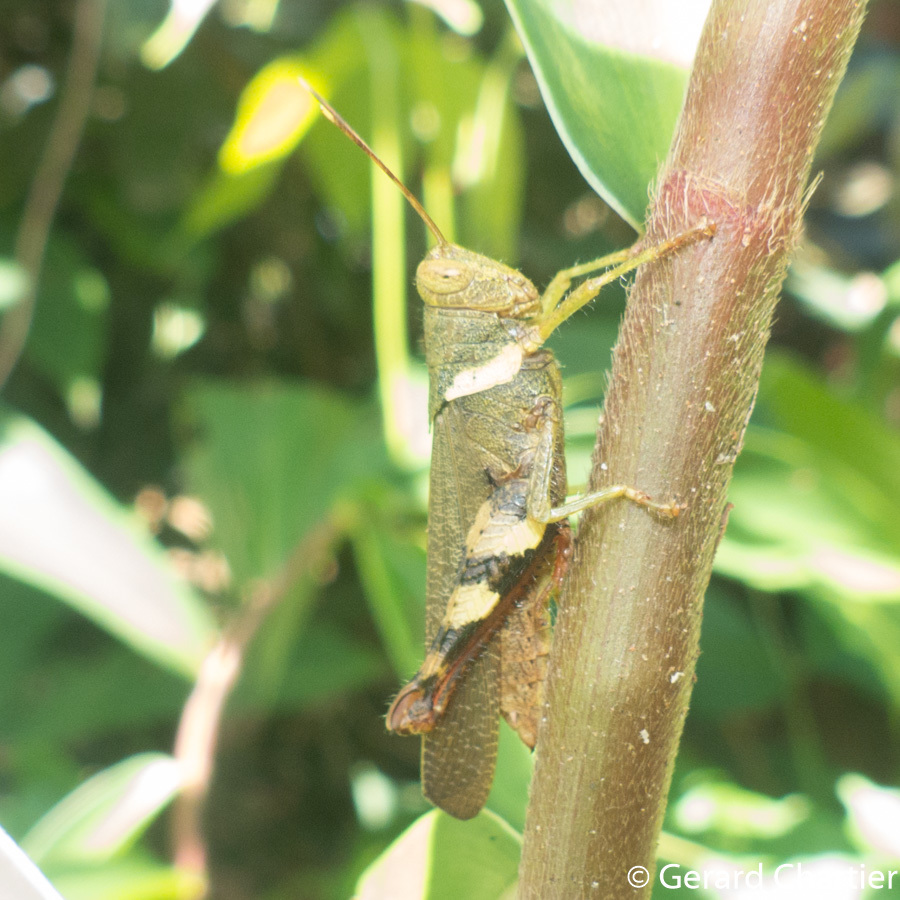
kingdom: Animalia
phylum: Arthropoda
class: Insecta
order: Orthoptera
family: Acrididae
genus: Apalacris
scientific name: Apalacris varicornis
